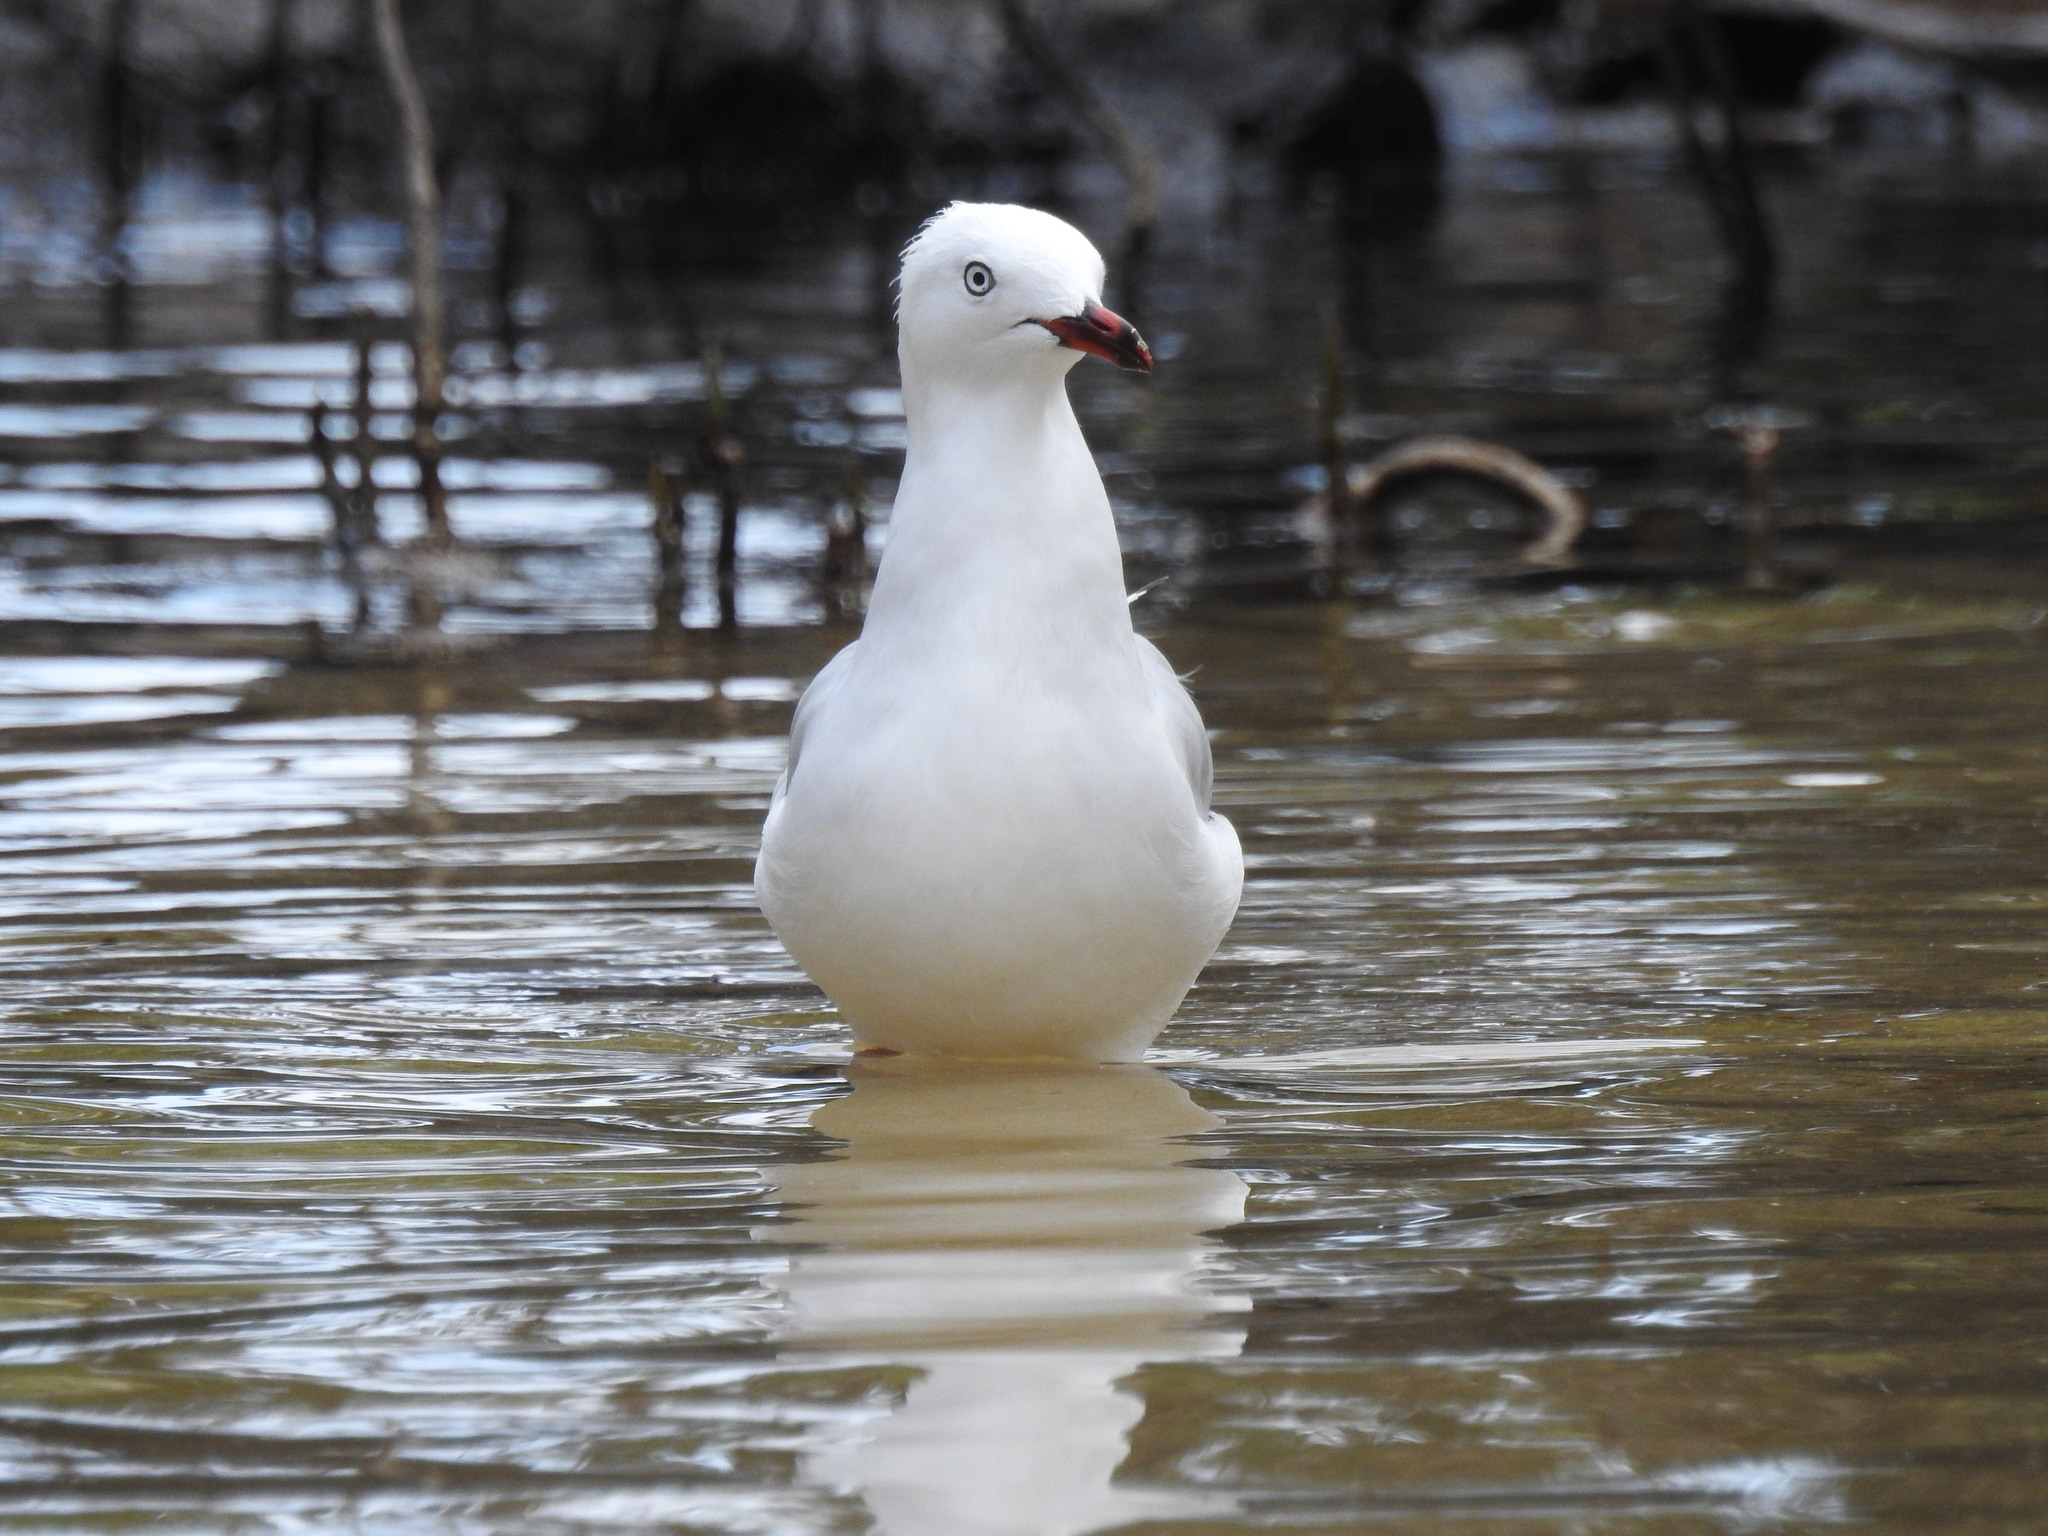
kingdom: Animalia
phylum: Chordata
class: Aves
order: Charadriiformes
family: Laridae
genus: Chroicocephalus
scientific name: Chroicocephalus novaehollandiae
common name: Silver gull
